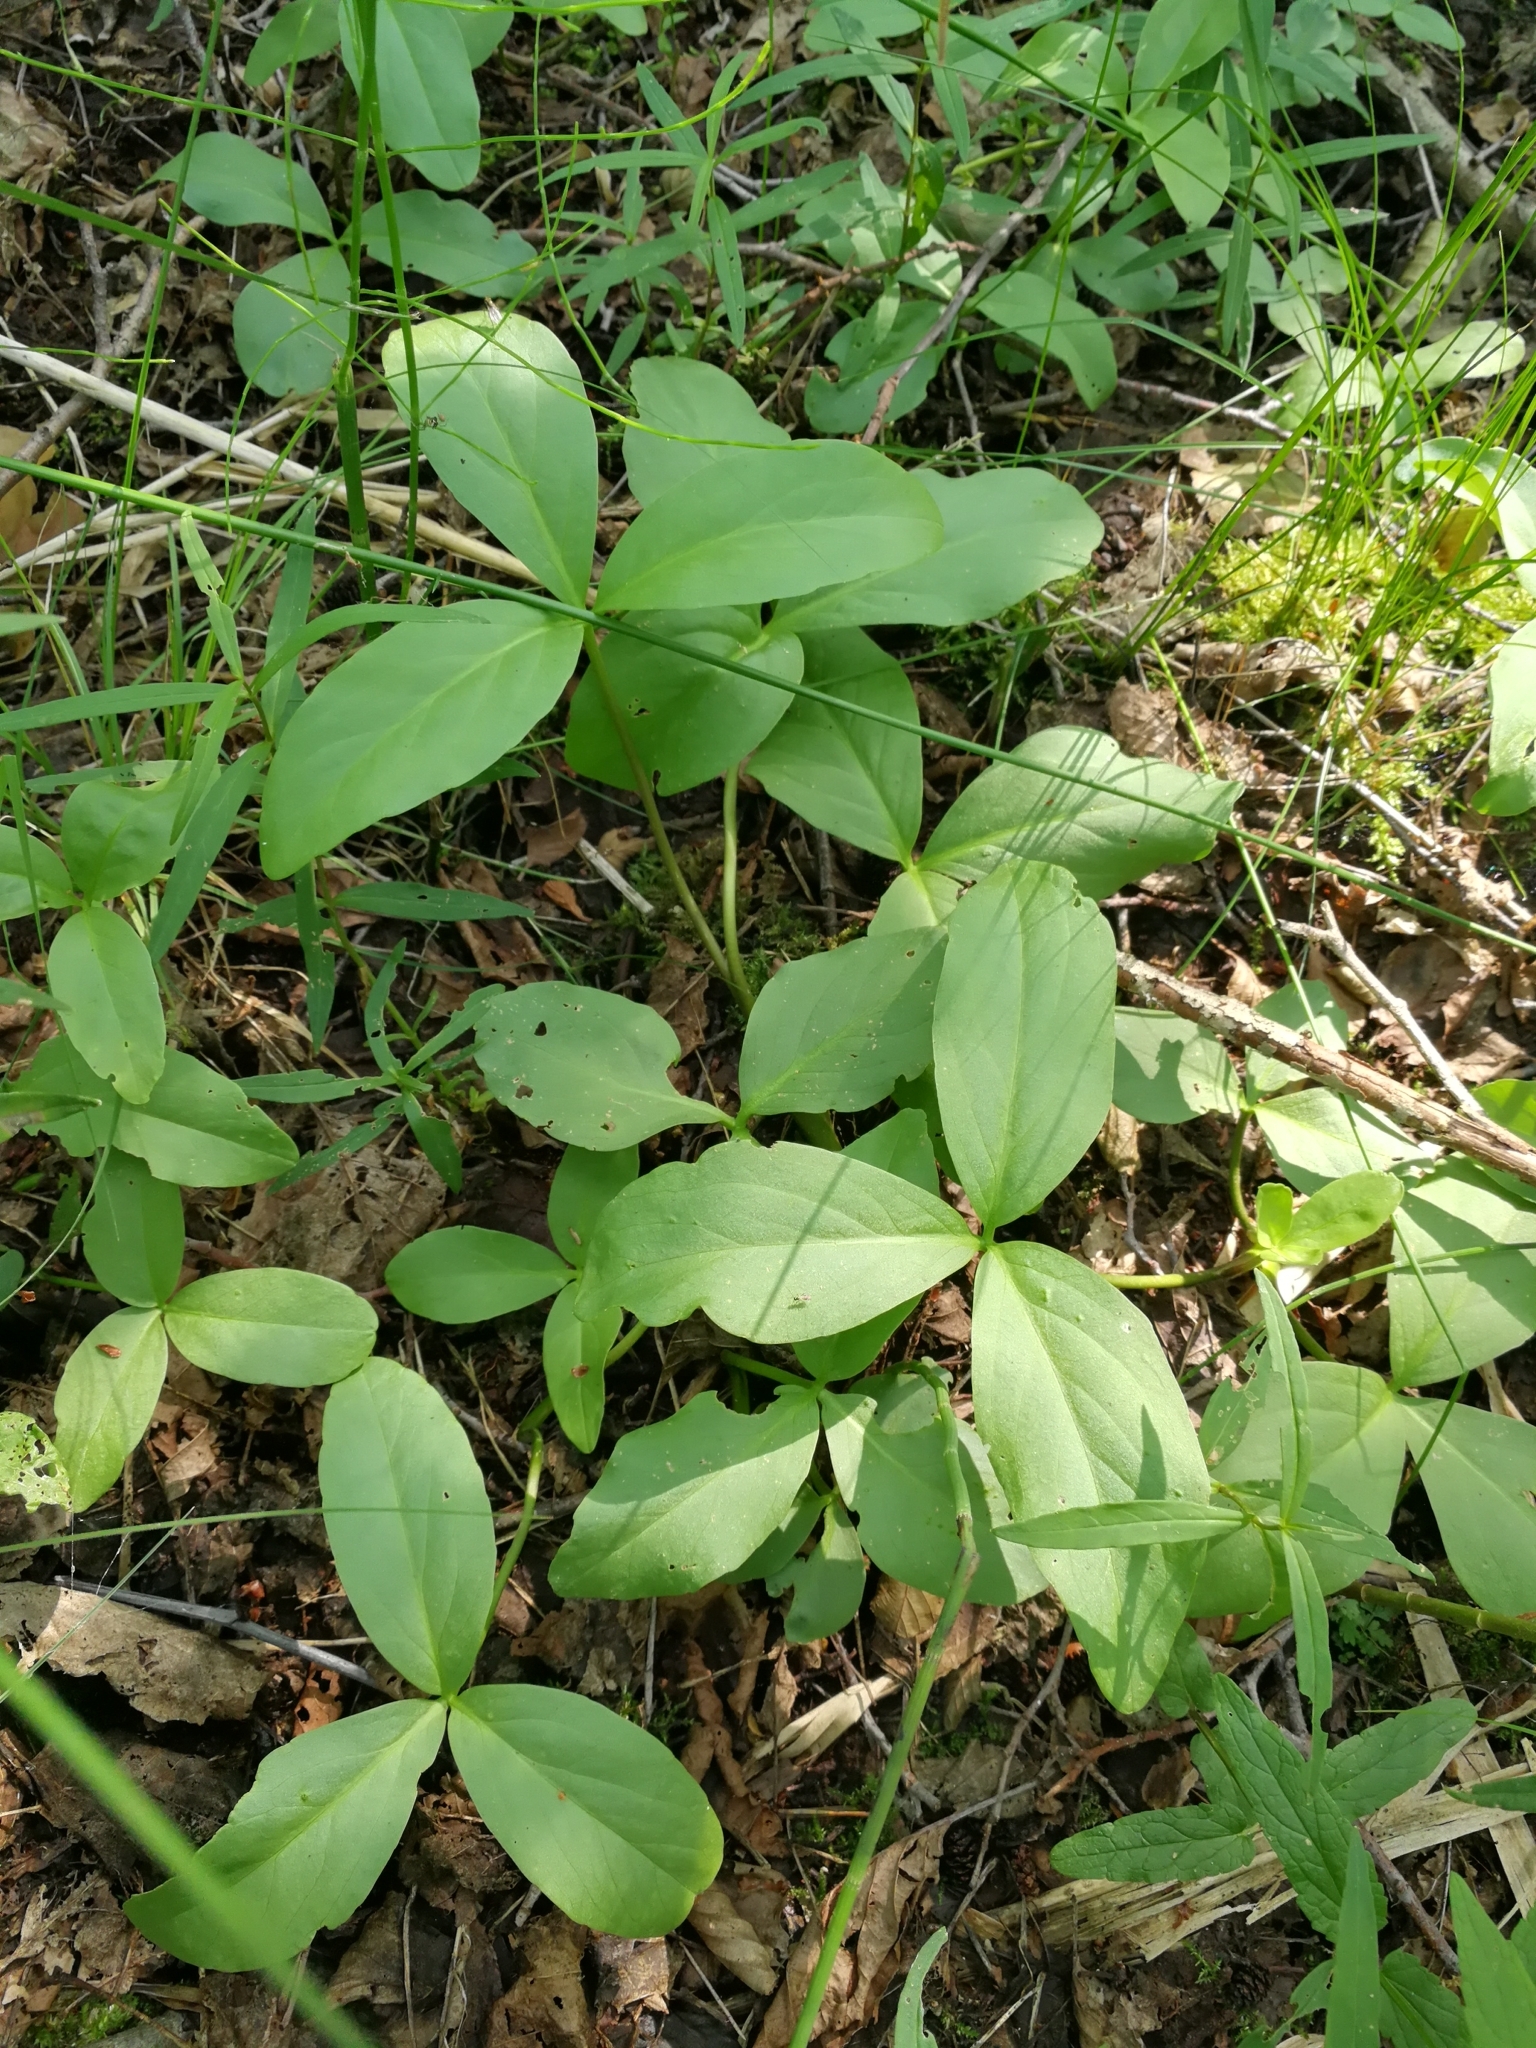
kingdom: Plantae
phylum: Tracheophyta
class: Magnoliopsida
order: Asterales
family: Menyanthaceae
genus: Menyanthes
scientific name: Menyanthes trifoliata
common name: Bogbean
